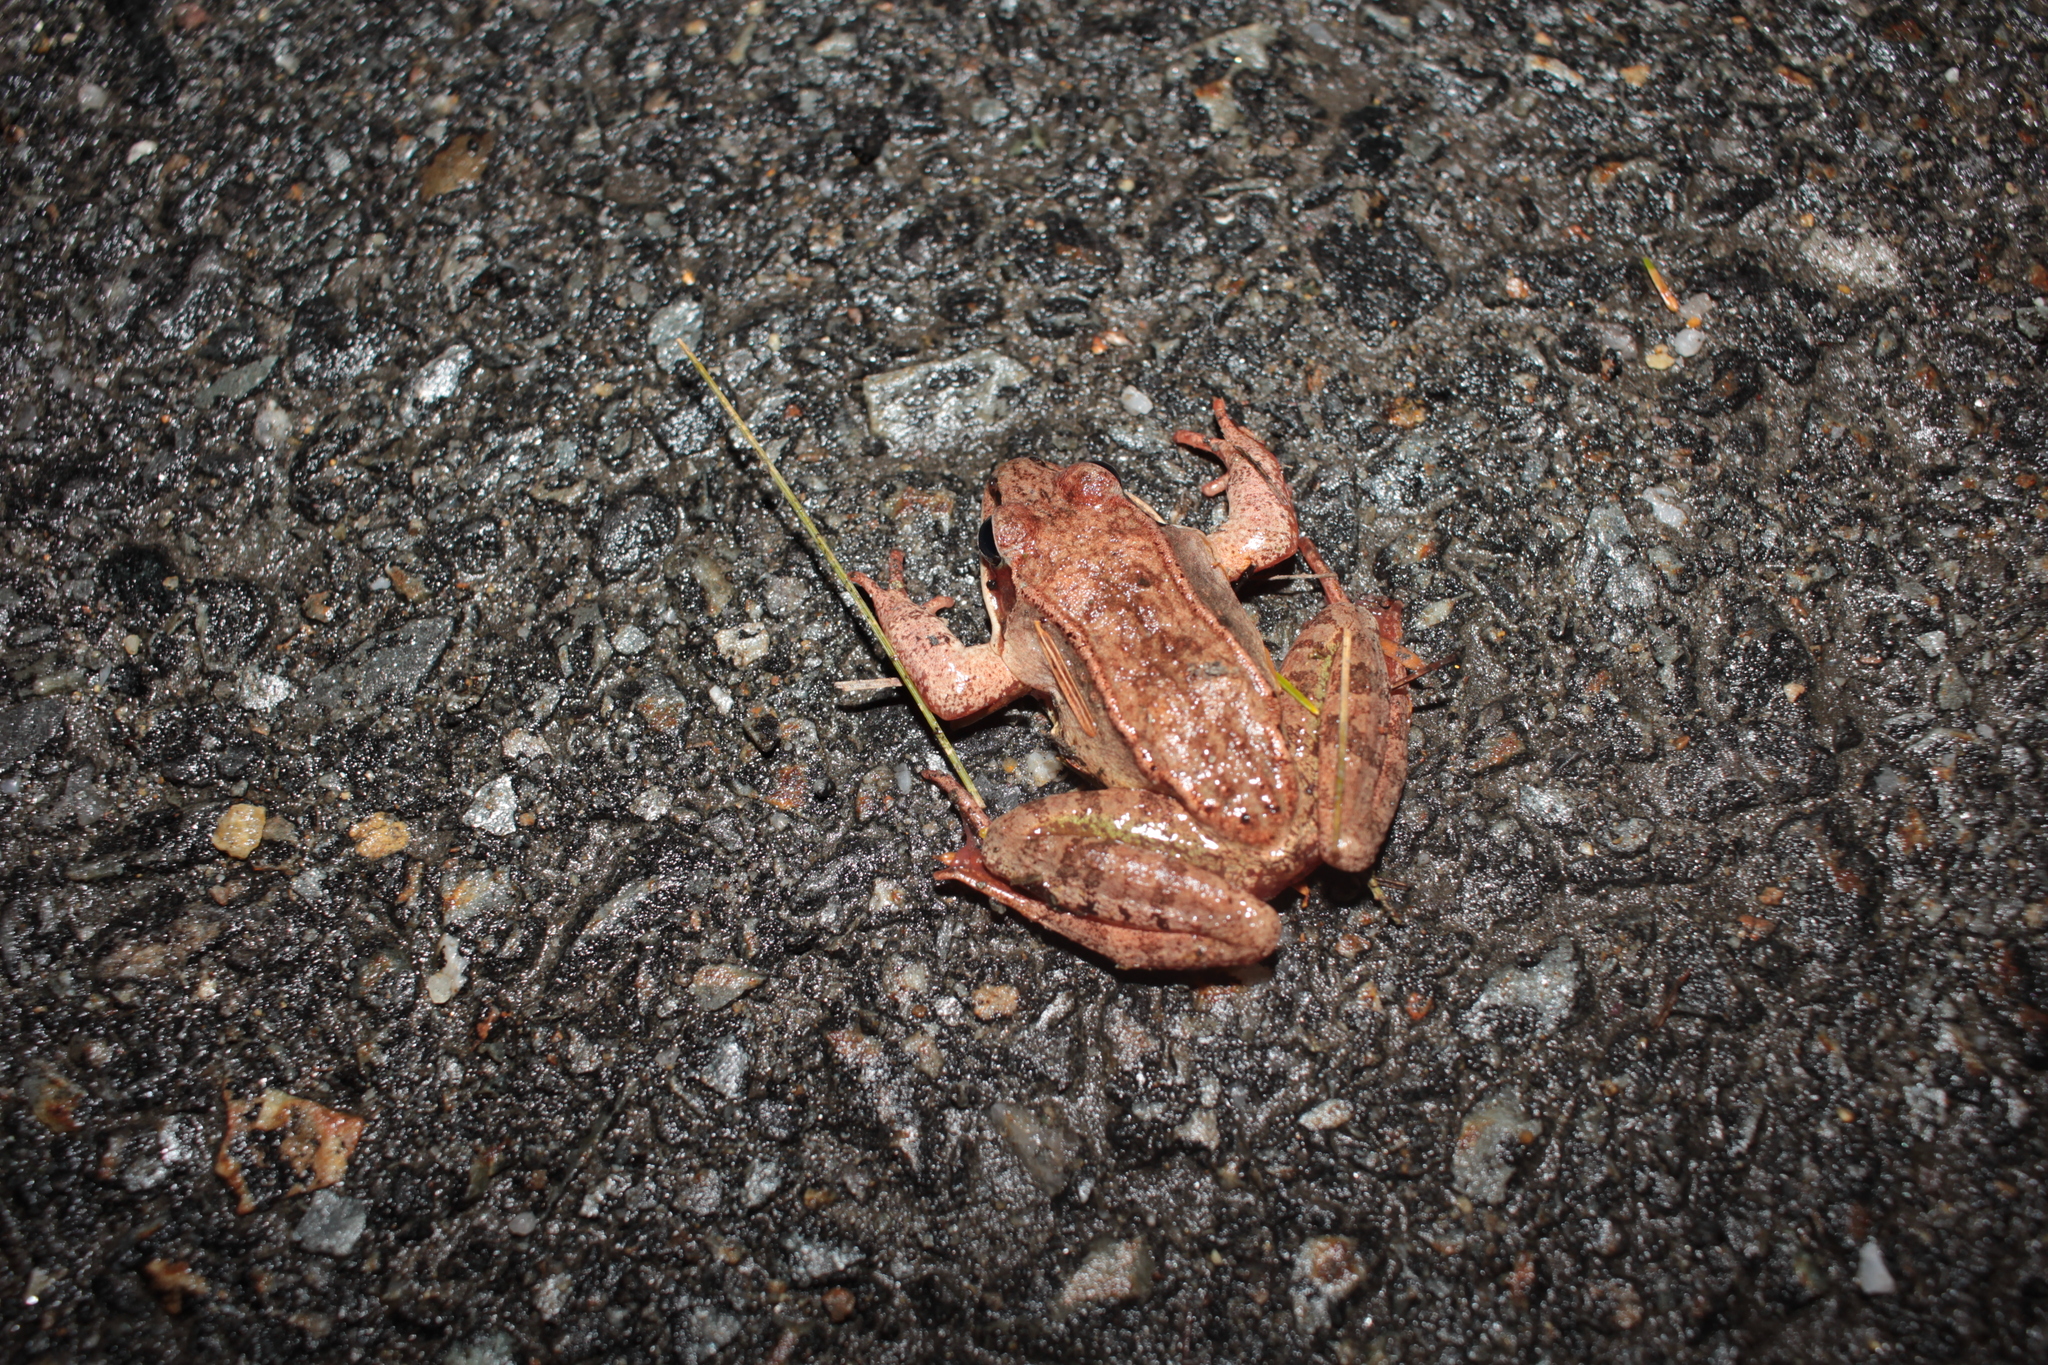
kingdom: Animalia
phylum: Chordata
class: Amphibia
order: Anura
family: Ranidae
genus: Lithobates
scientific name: Lithobates sylvaticus
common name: Wood frog
